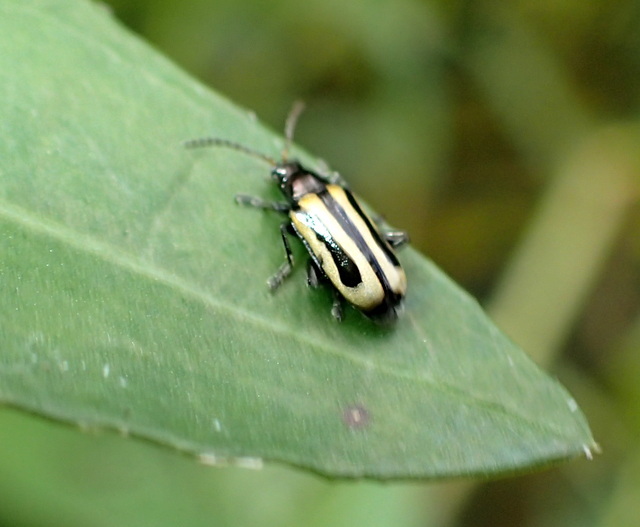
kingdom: Animalia
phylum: Arthropoda
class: Insecta
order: Coleoptera
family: Chrysomelidae
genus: Agasicles
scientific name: Agasicles hygrophila
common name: Alligatorweed flea beetle
